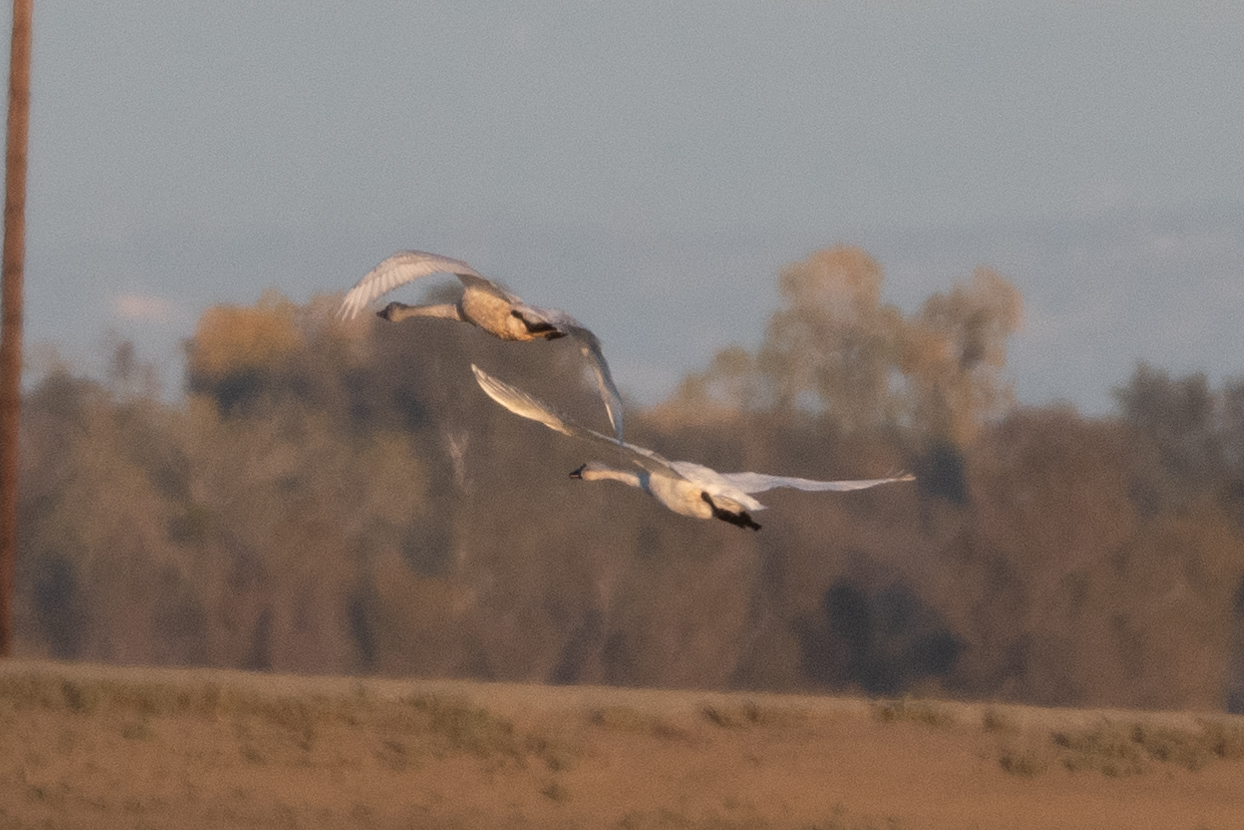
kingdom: Animalia
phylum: Chordata
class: Aves
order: Anseriformes
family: Anatidae
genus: Cygnus
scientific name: Cygnus columbianus
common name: Tundra swan
